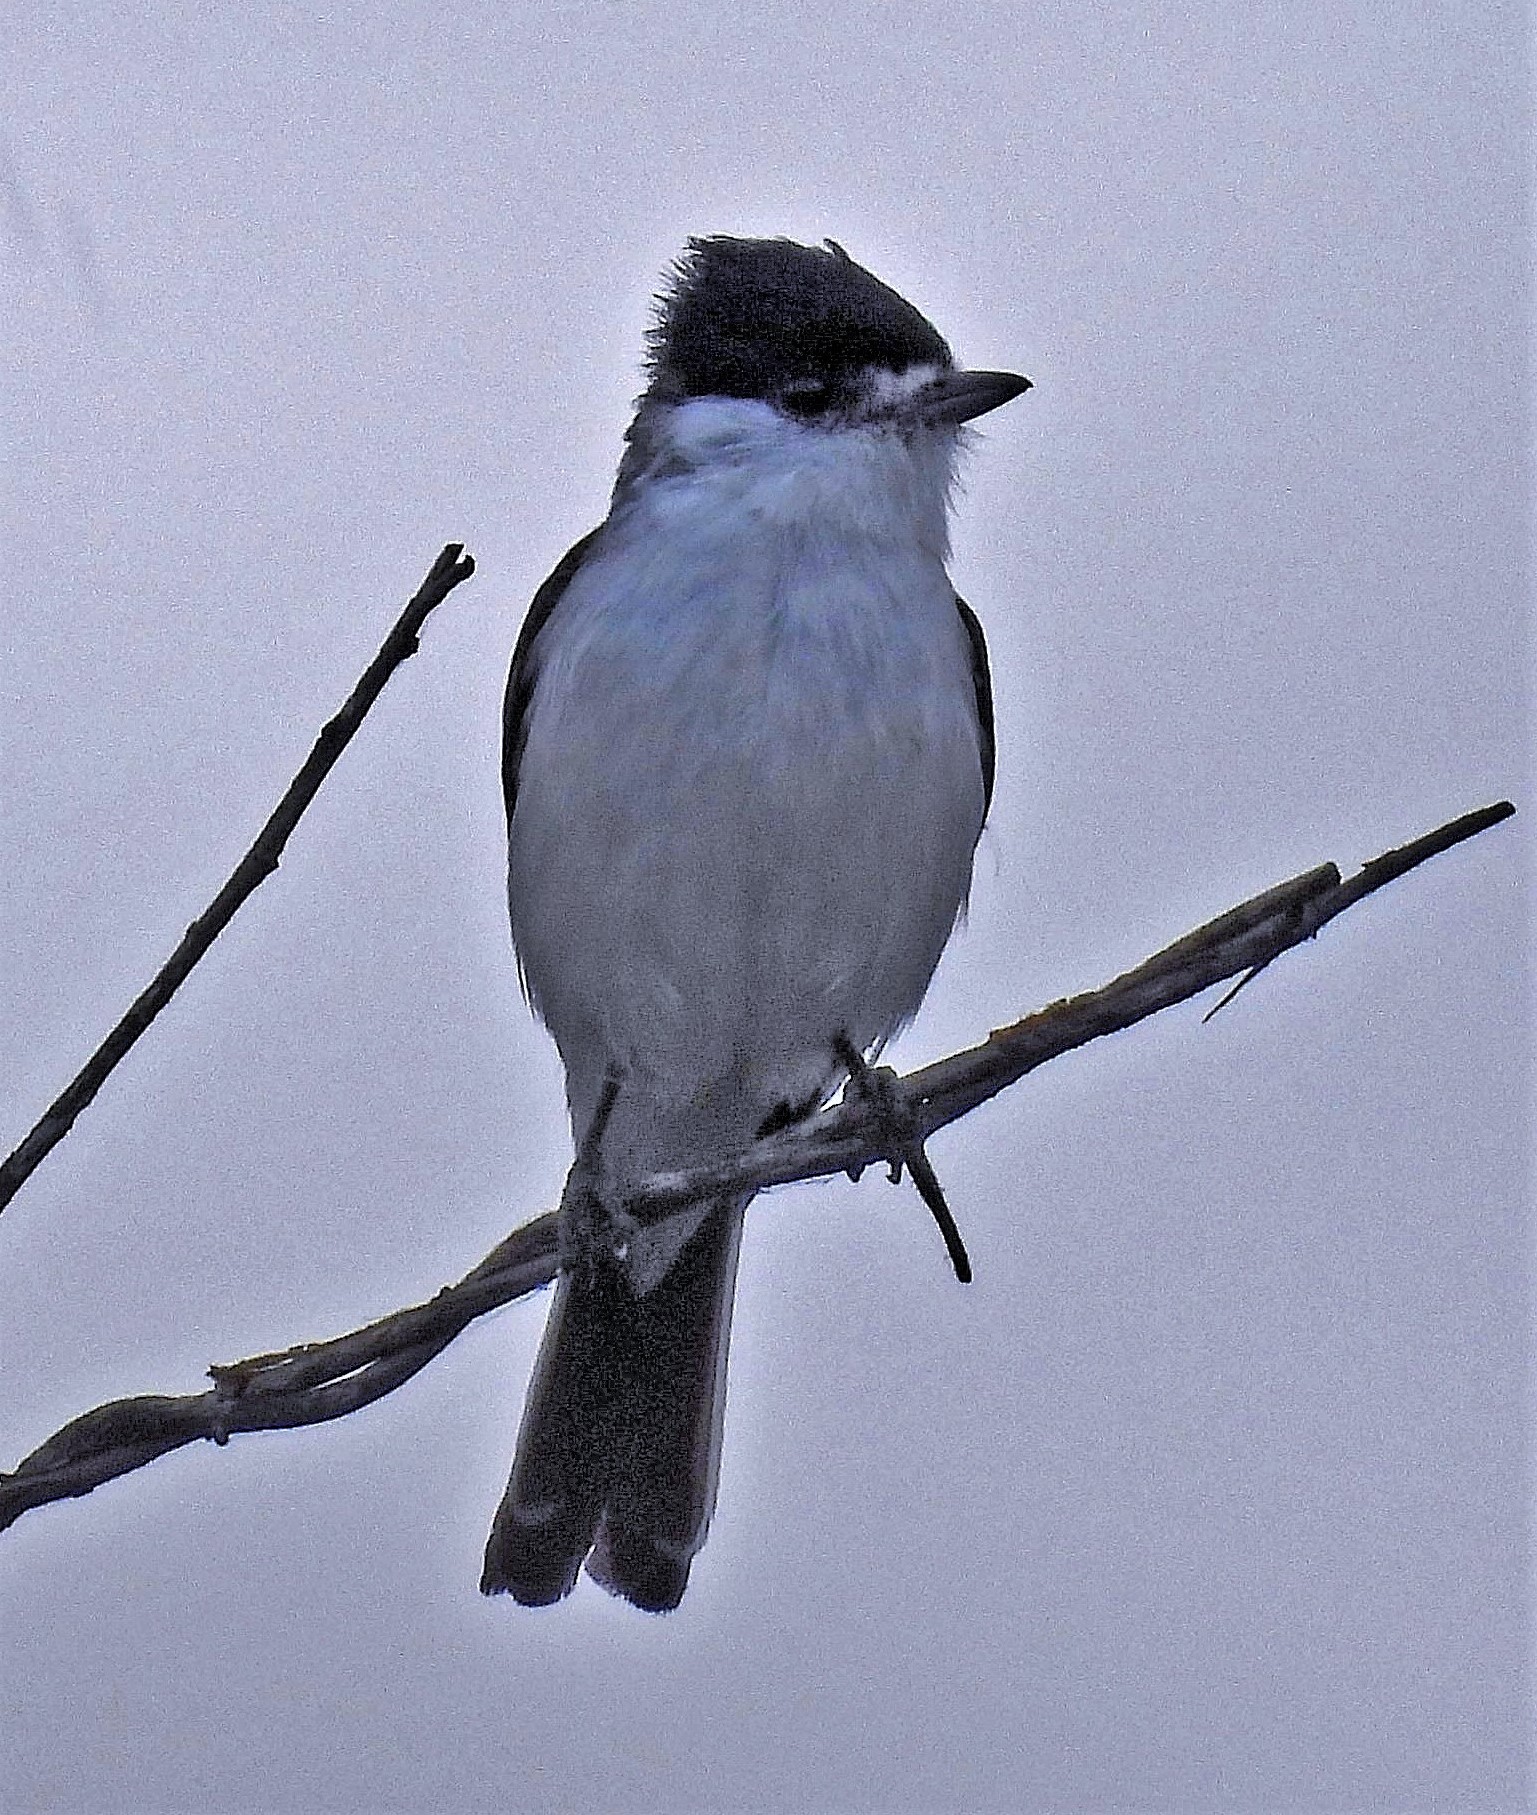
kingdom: Animalia
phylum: Chordata
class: Aves
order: Passeriformes
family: Cotingidae
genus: Xenopsaris
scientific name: Xenopsaris albinucha
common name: White-naped xenopsaris
